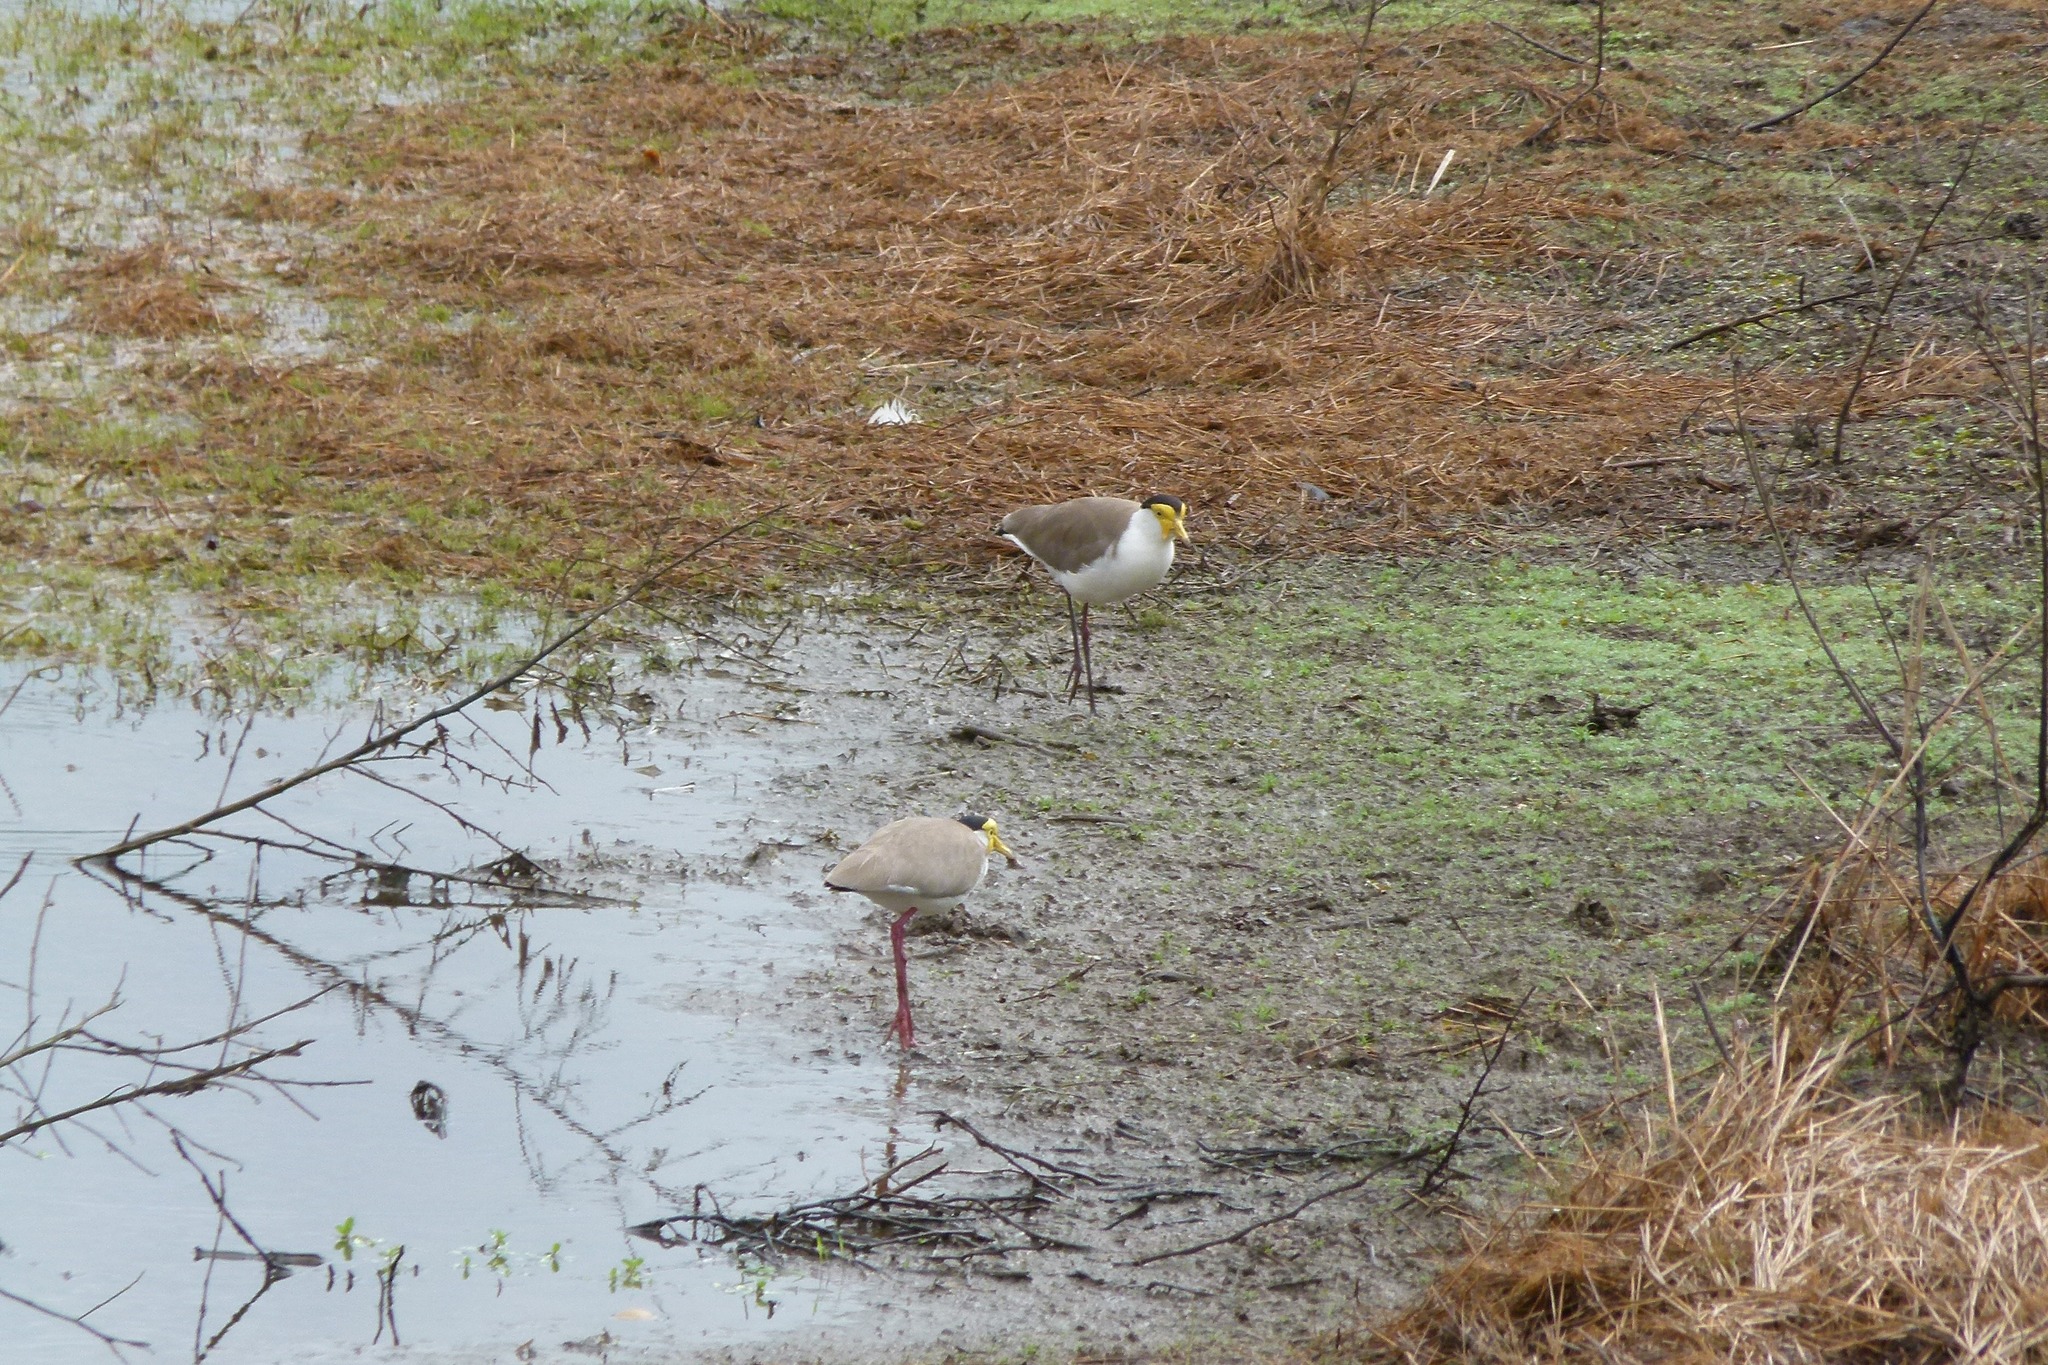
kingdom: Animalia
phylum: Chordata
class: Aves
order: Charadriiformes
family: Charadriidae
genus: Vanellus
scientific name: Vanellus miles
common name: Masked lapwing
